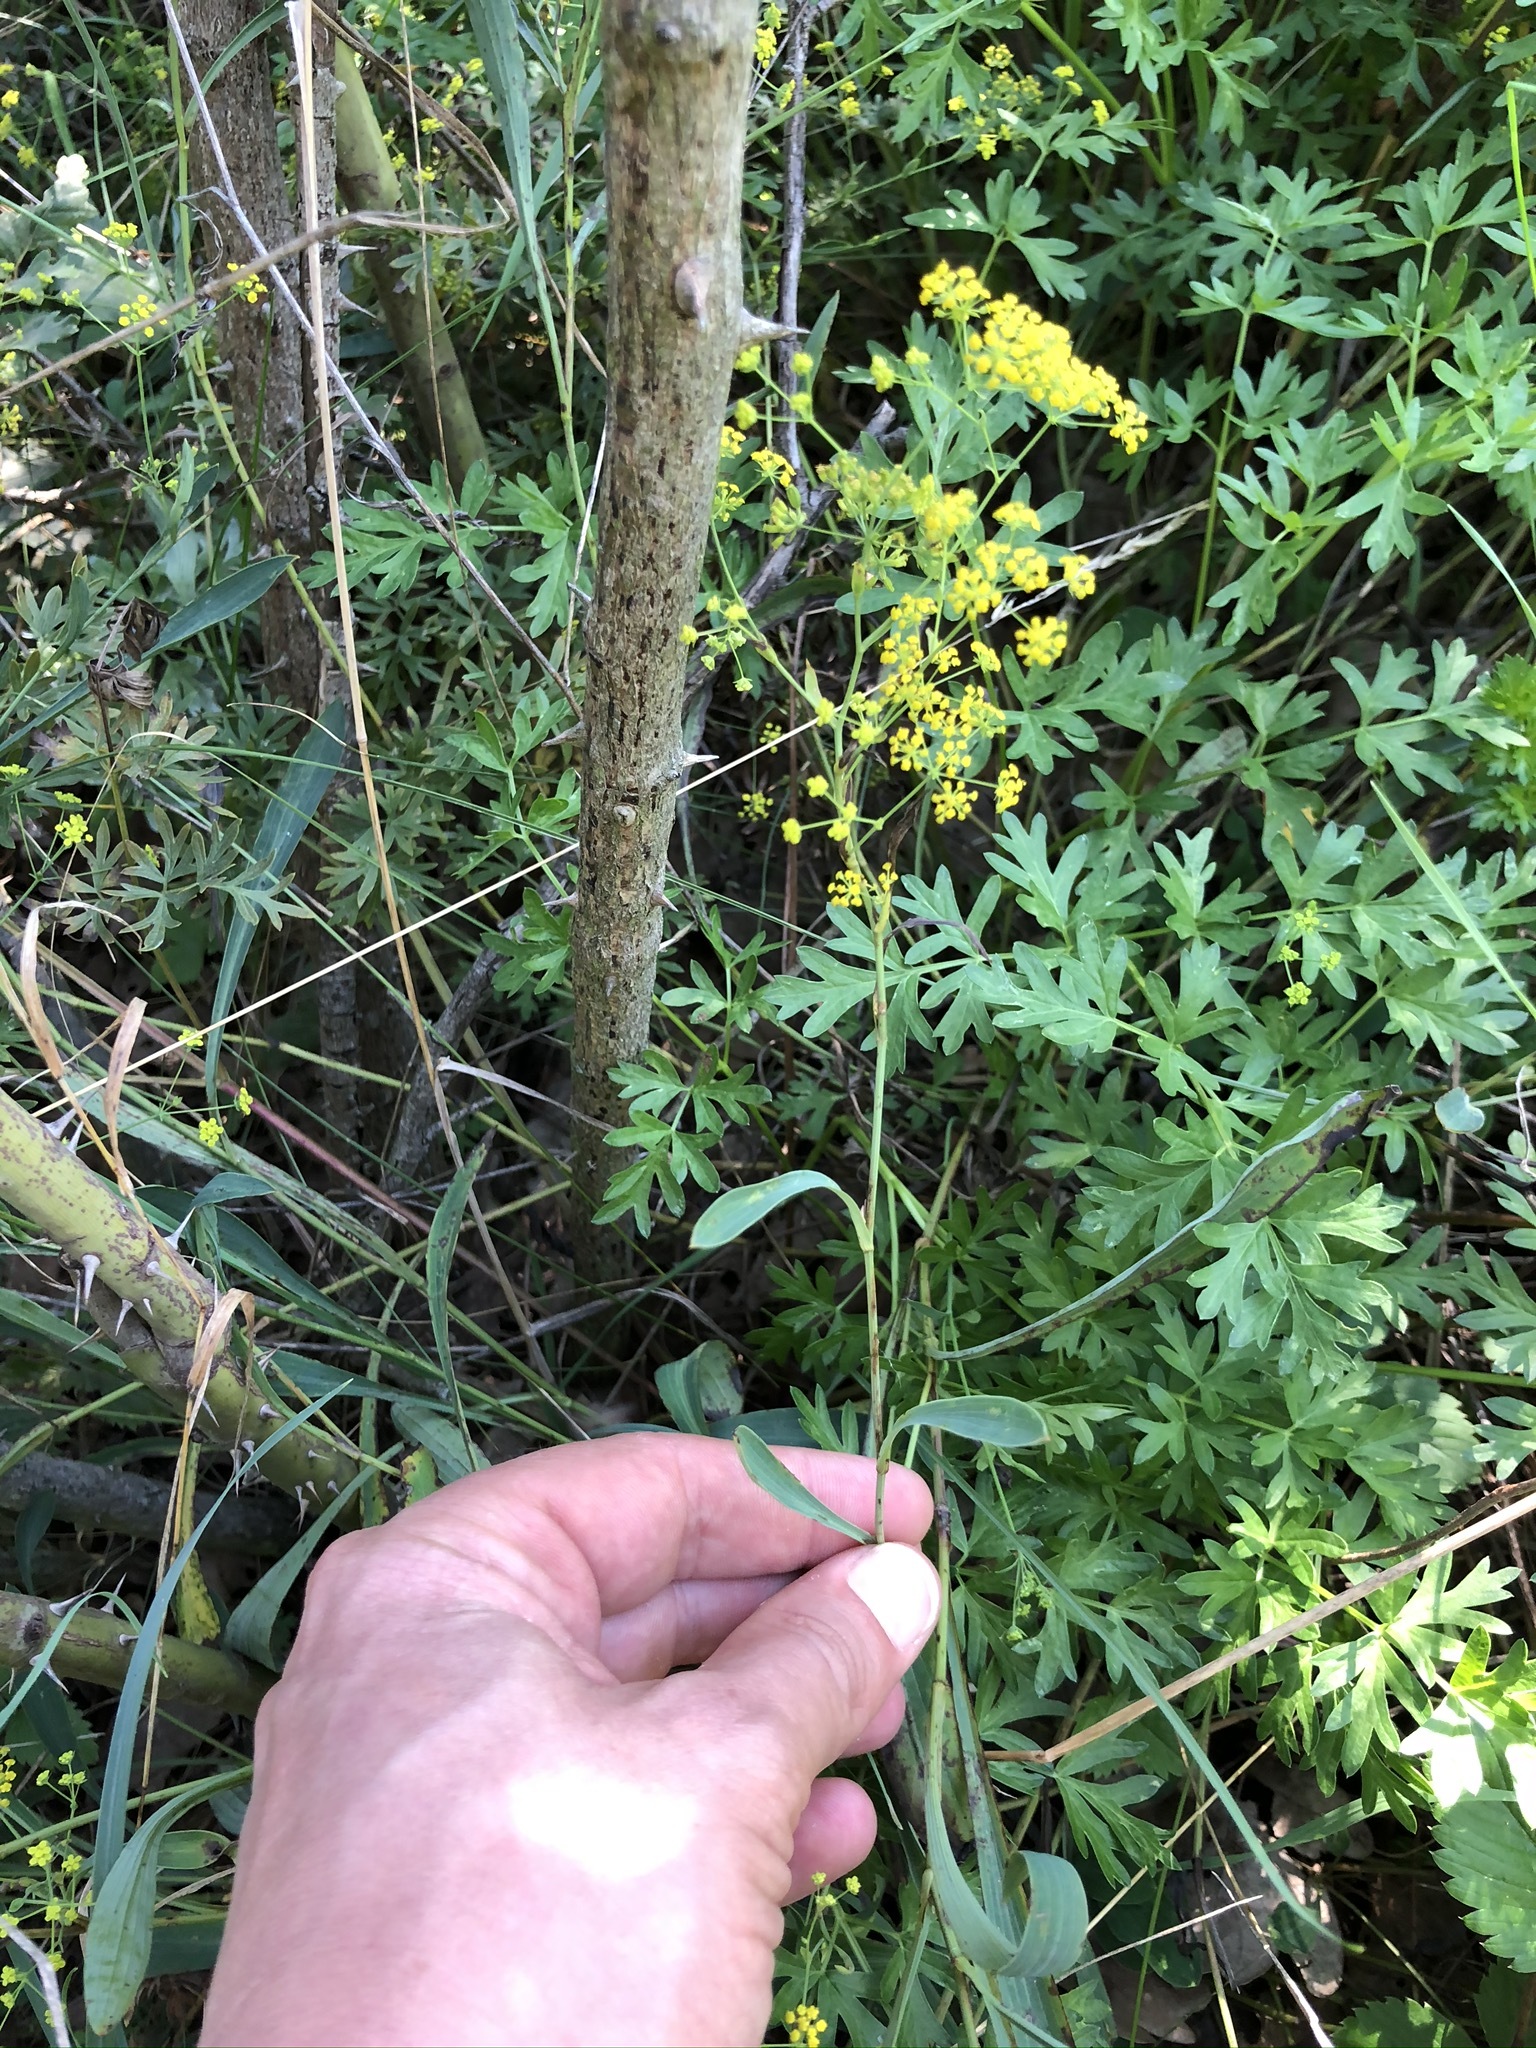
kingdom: Plantae
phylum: Tracheophyta
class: Magnoliopsida
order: Apiales
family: Apiaceae
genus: Bupleurum
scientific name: Bupleurum falcatum
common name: Sickle-leaved hare's-ear
